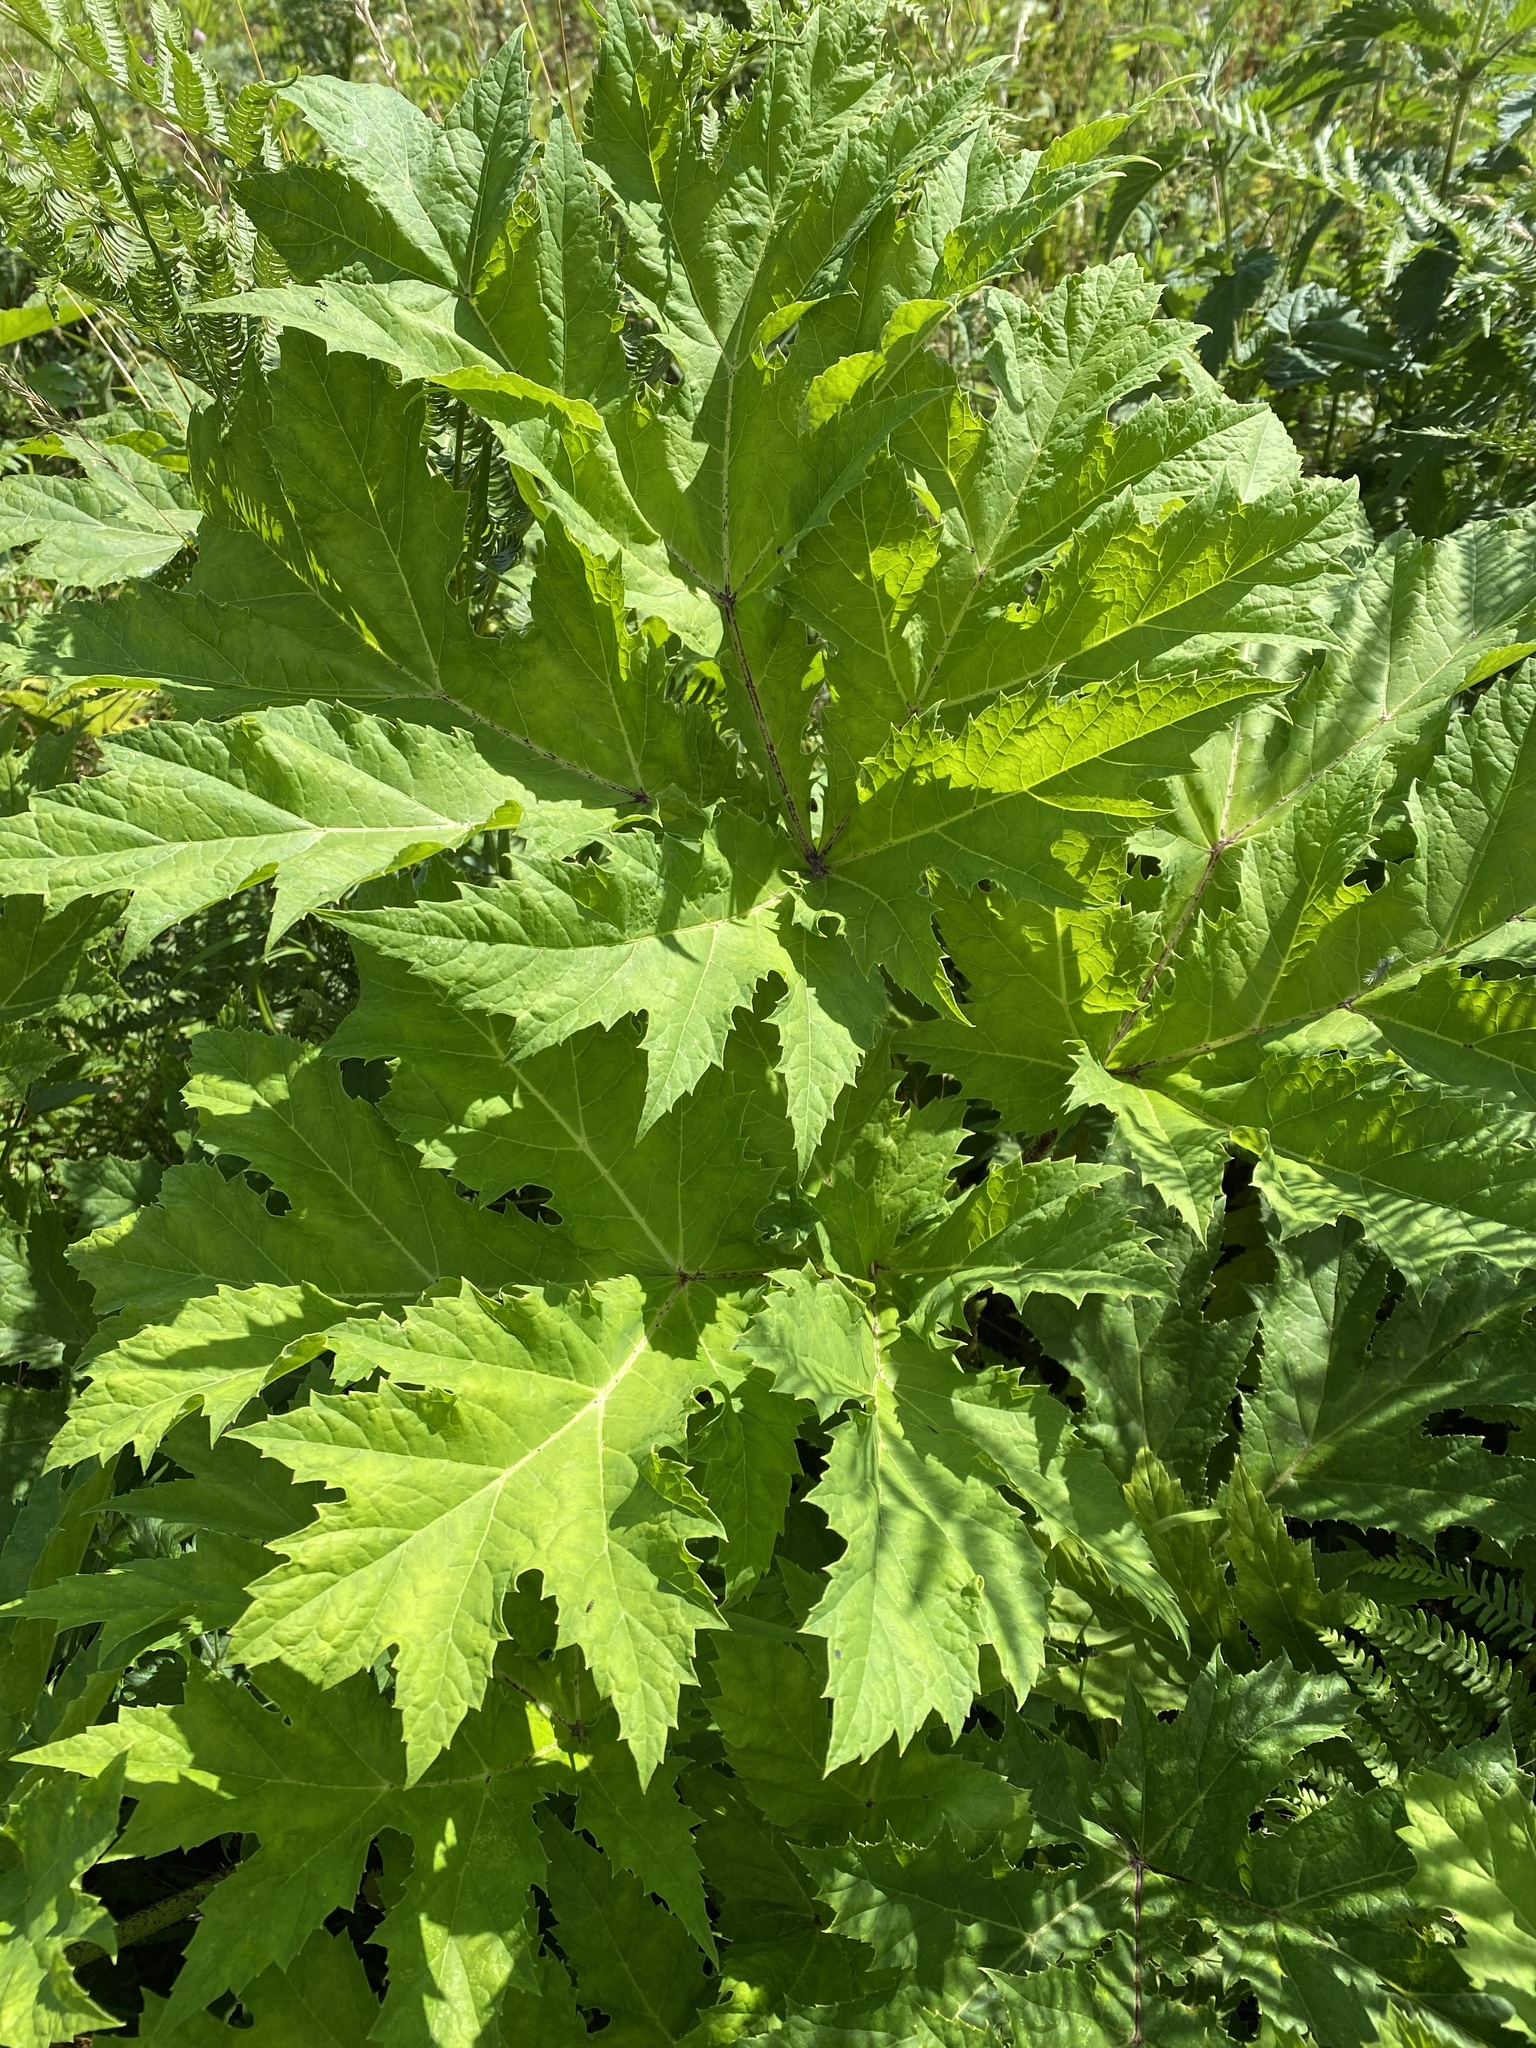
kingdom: Plantae
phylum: Tracheophyta
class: Magnoliopsida
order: Apiales
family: Apiaceae
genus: Heracleum
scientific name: Heracleum mantegazzianum
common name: Giant hogweed
